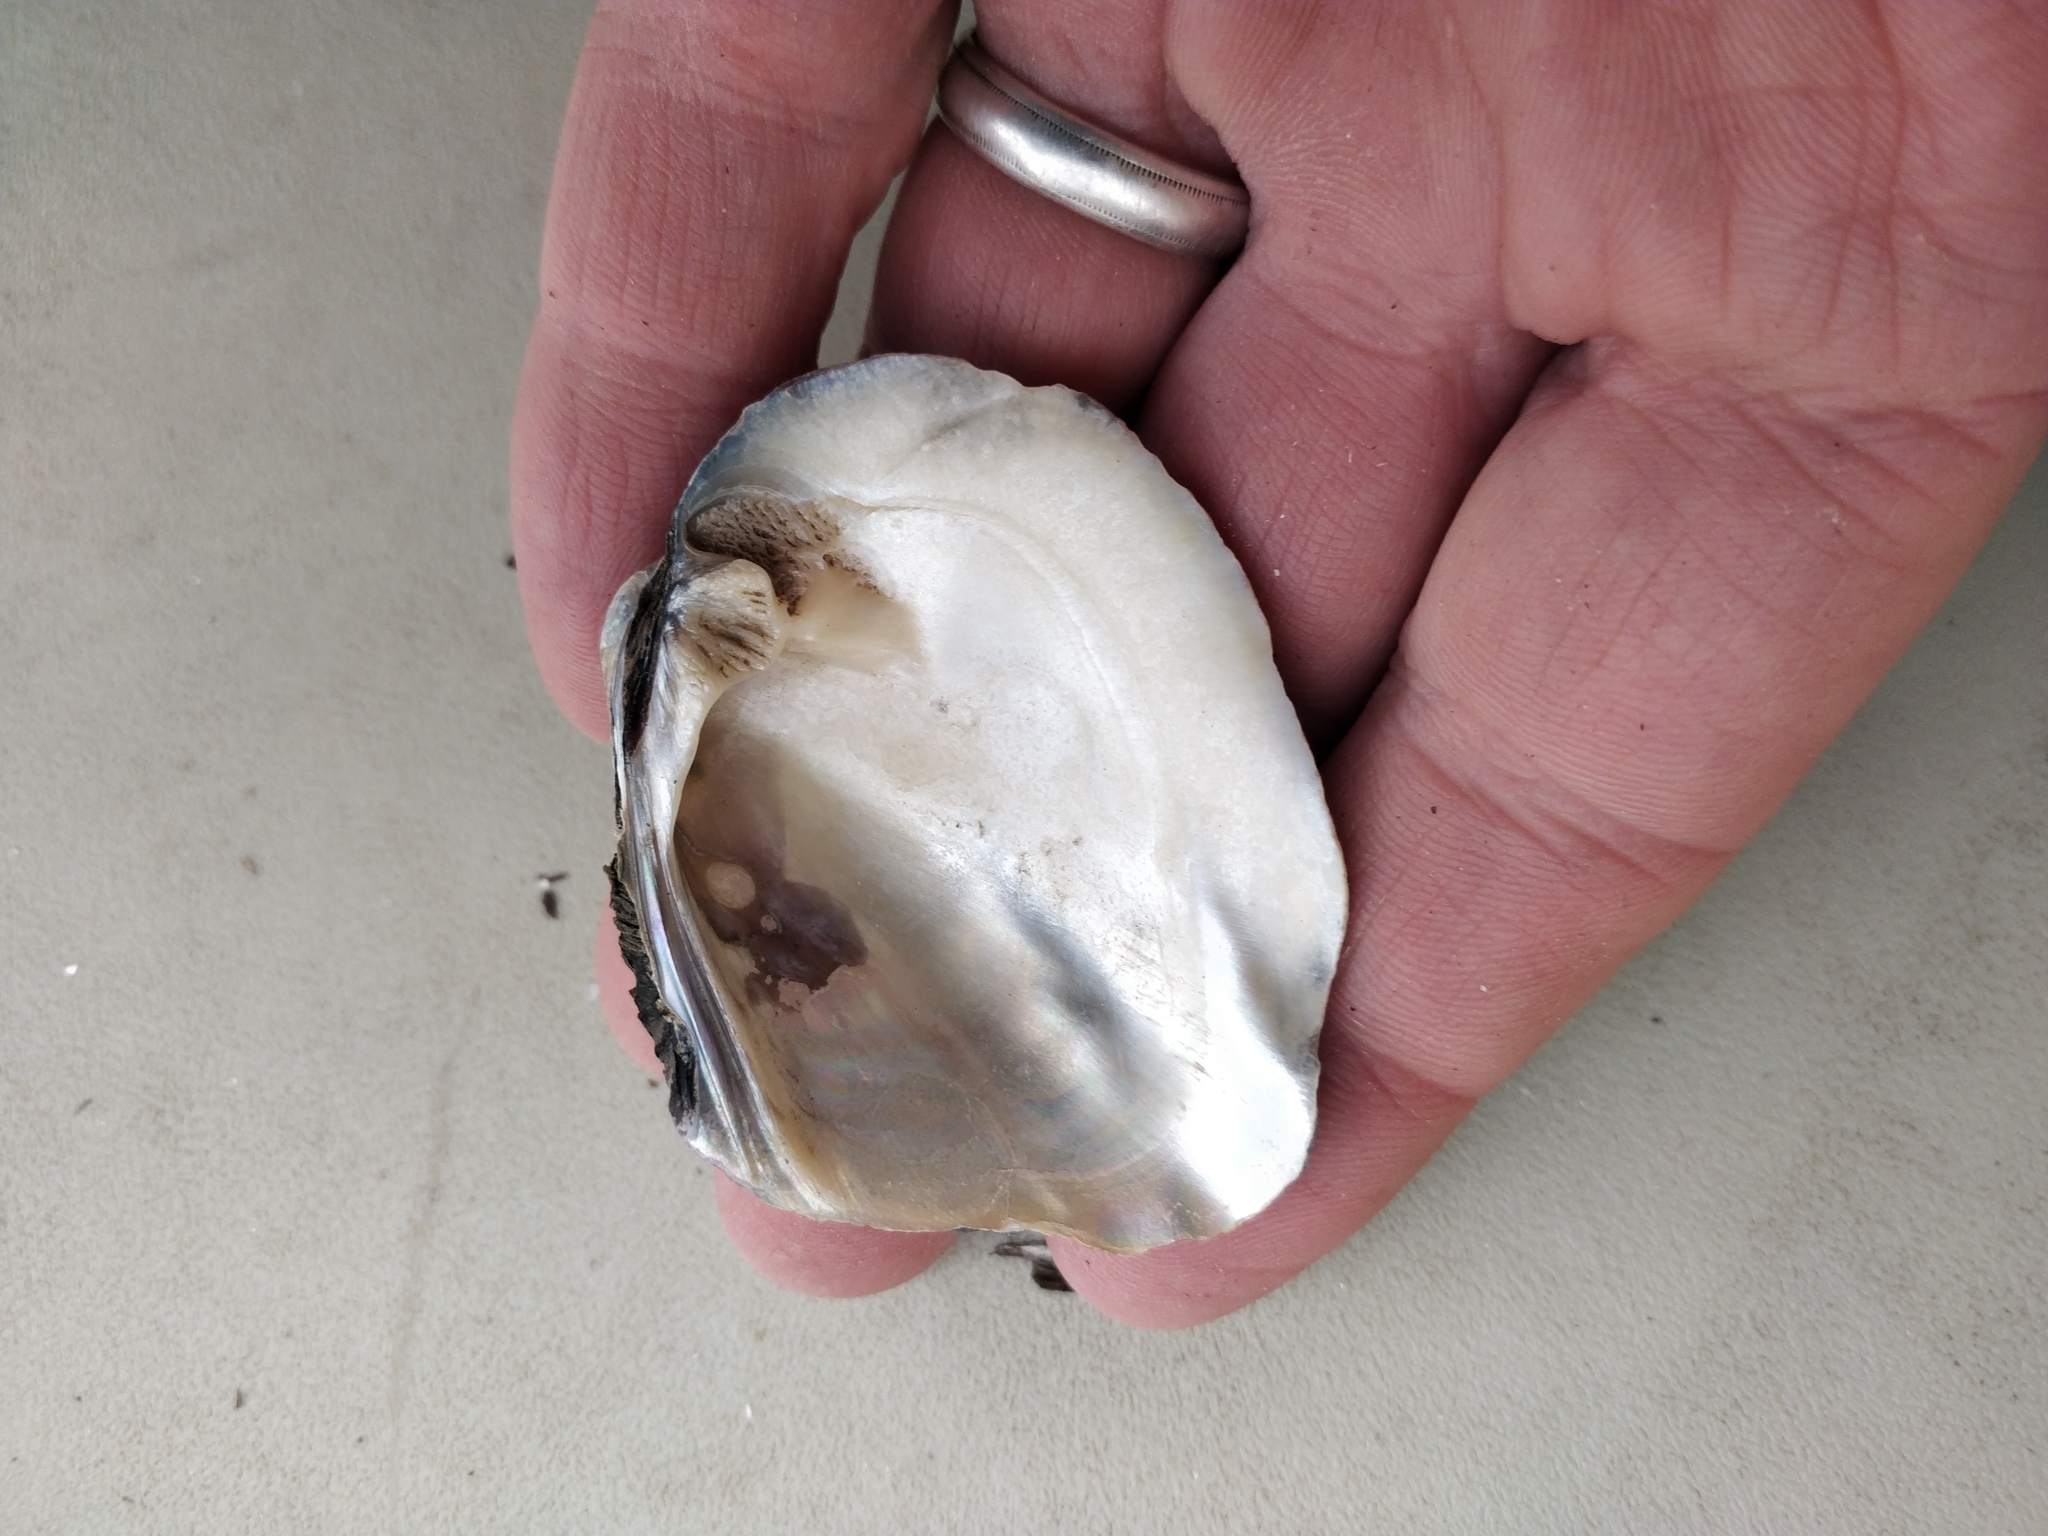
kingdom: Animalia
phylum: Mollusca
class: Bivalvia
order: Unionida
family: Unionidae
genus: Amblema
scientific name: Amblema plicata
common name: Threeridge
